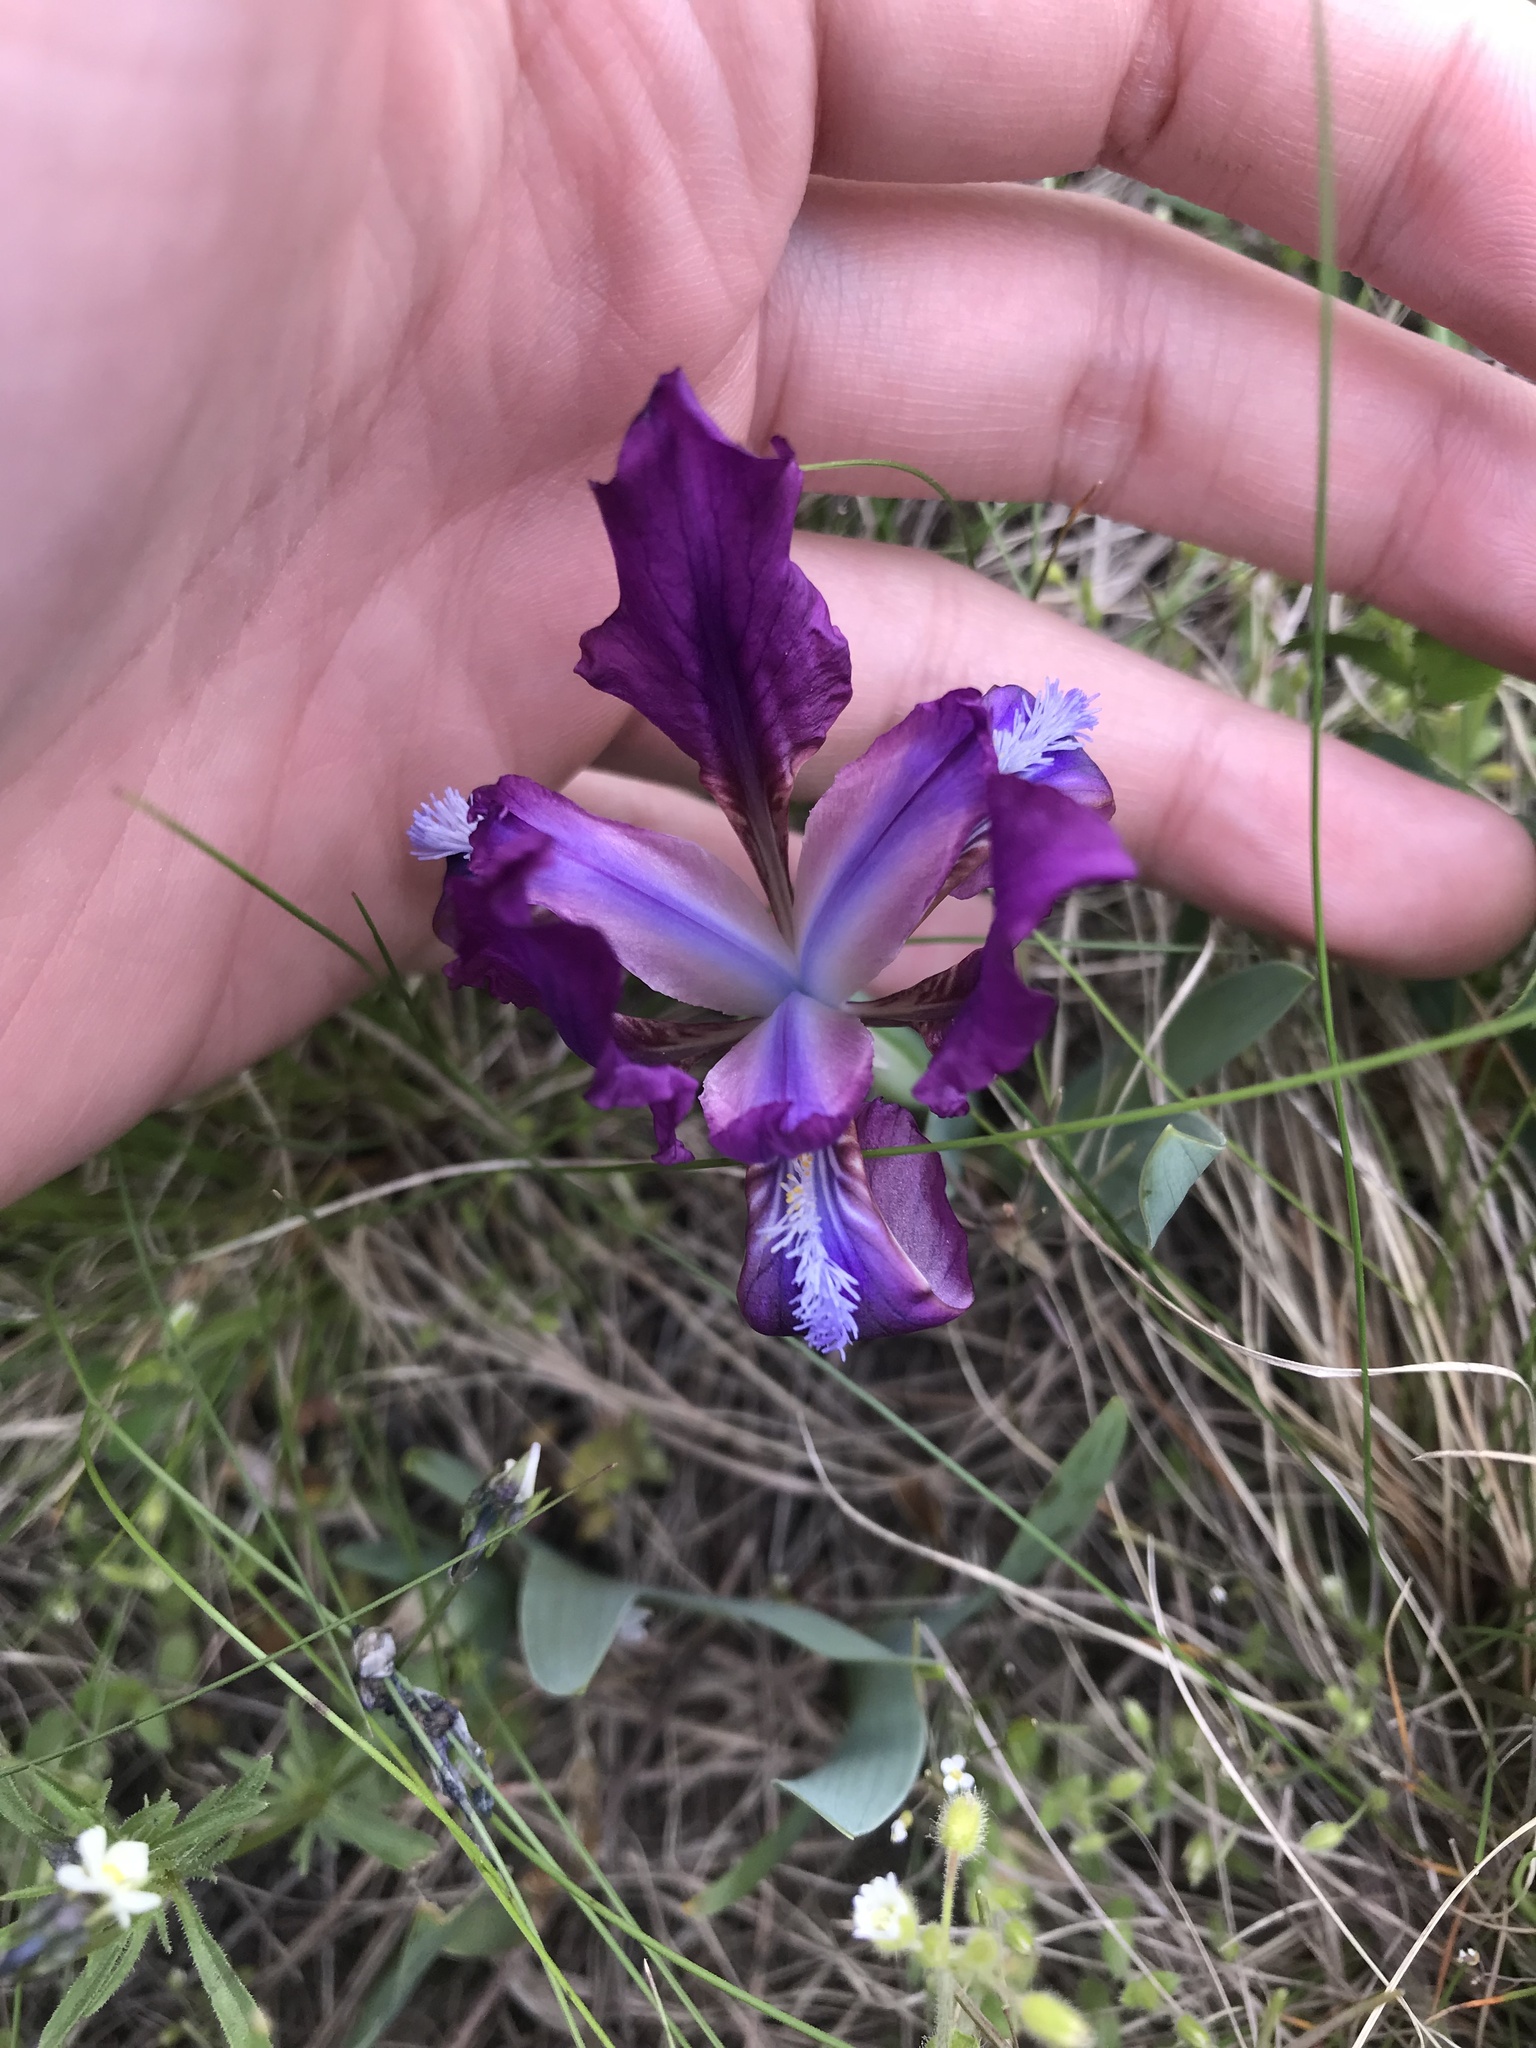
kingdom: Plantae
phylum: Tracheophyta
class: Liliopsida
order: Asparagales
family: Iridaceae
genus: Iris
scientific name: Iris pumila
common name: Dwarf iris
